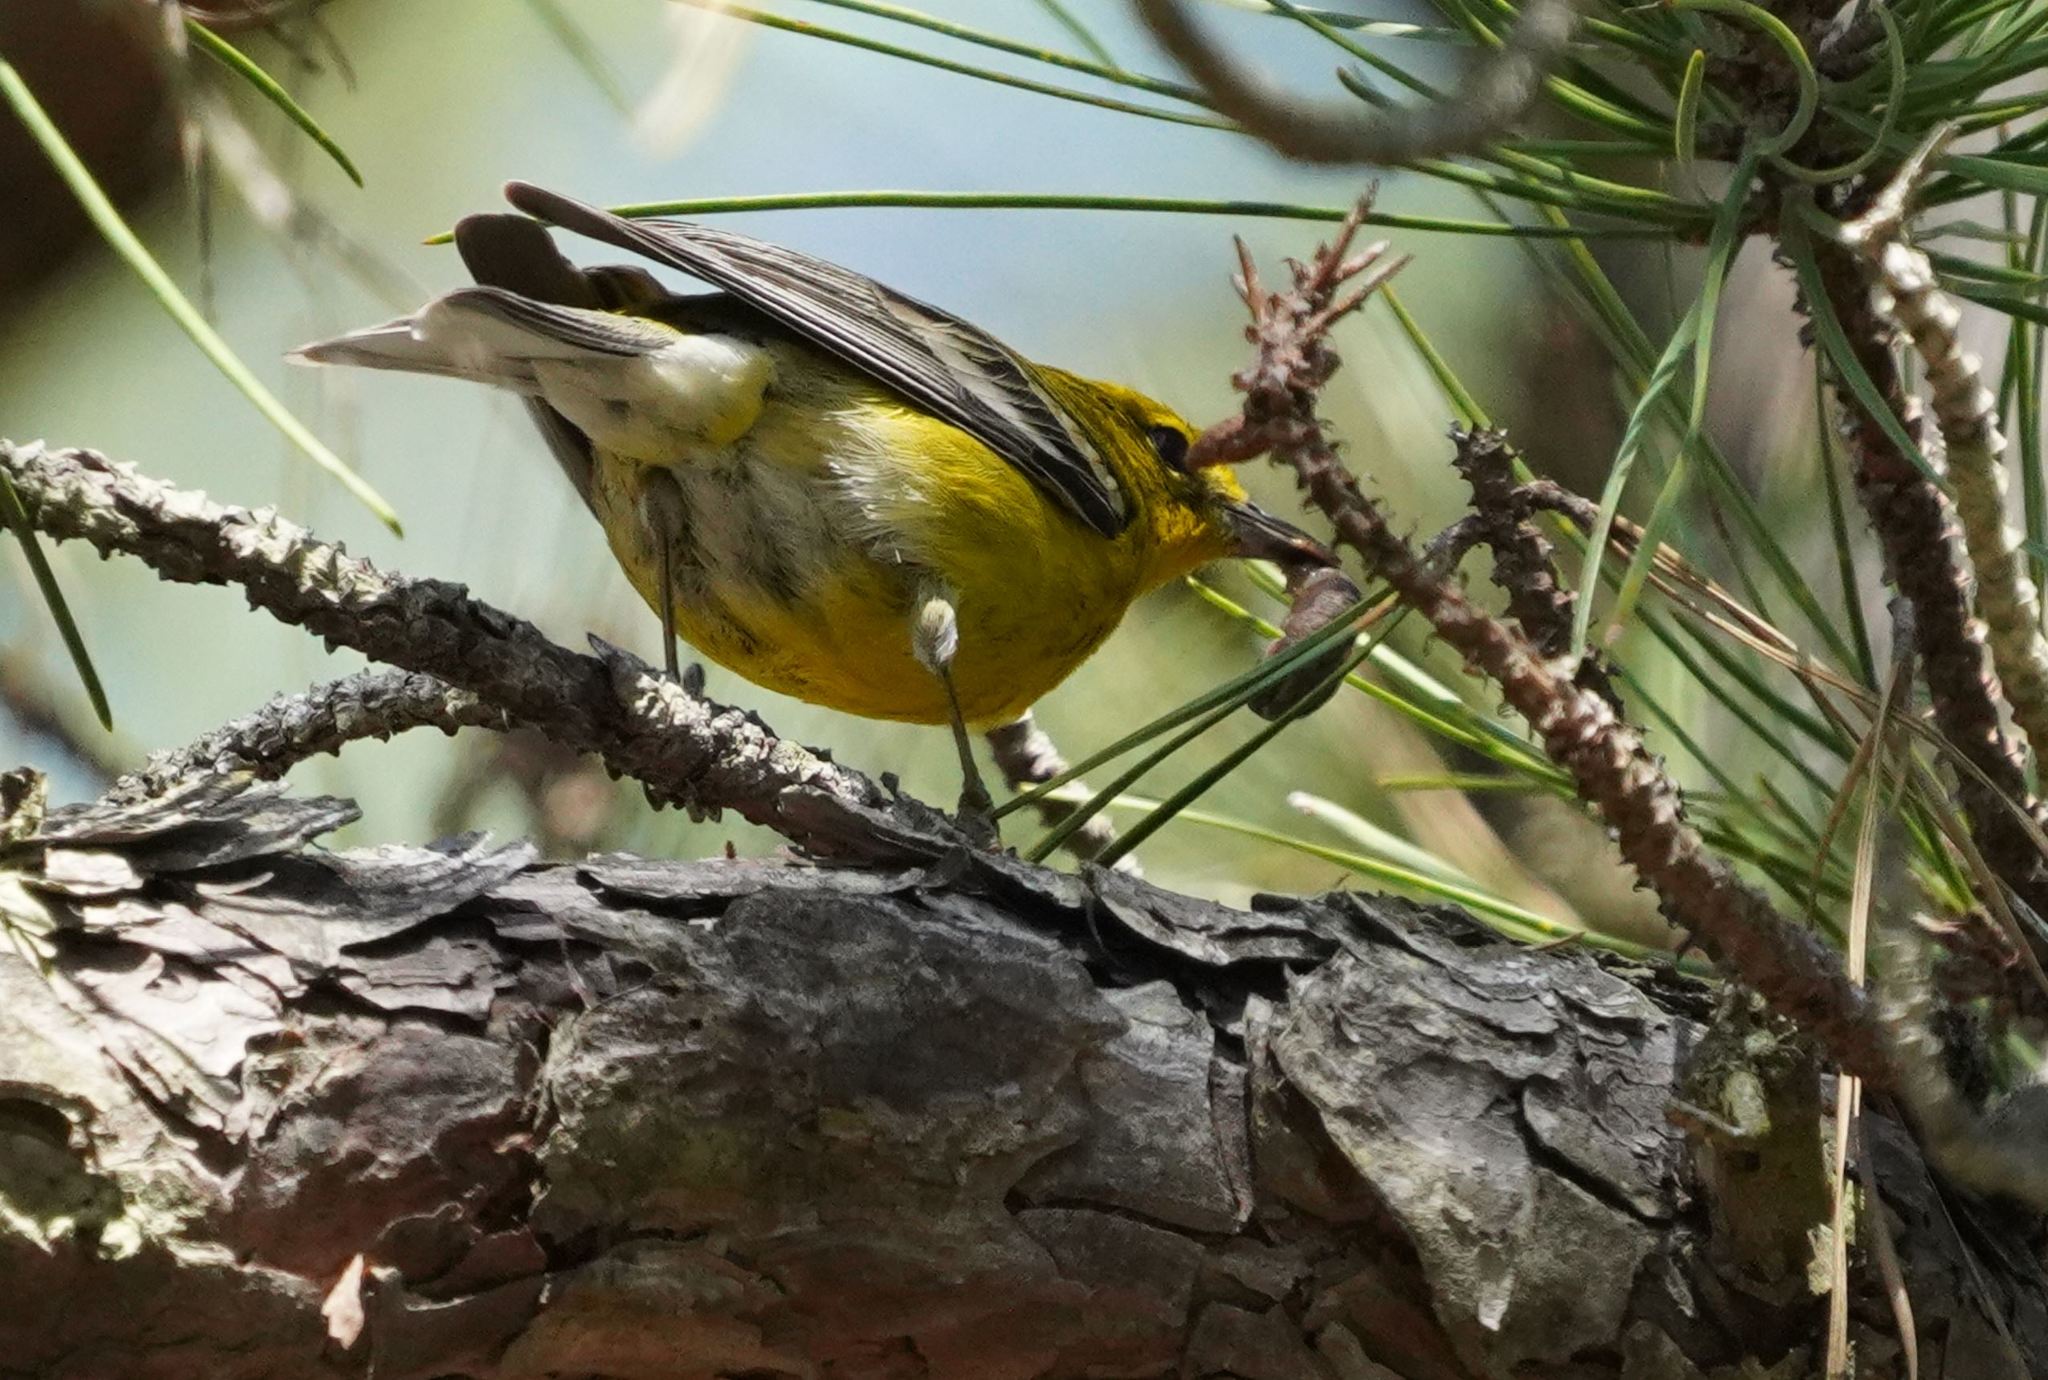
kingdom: Animalia
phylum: Chordata
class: Aves
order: Passeriformes
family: Parulidae
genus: Setophaga
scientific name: Setophaga pinus
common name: Pine warbler
